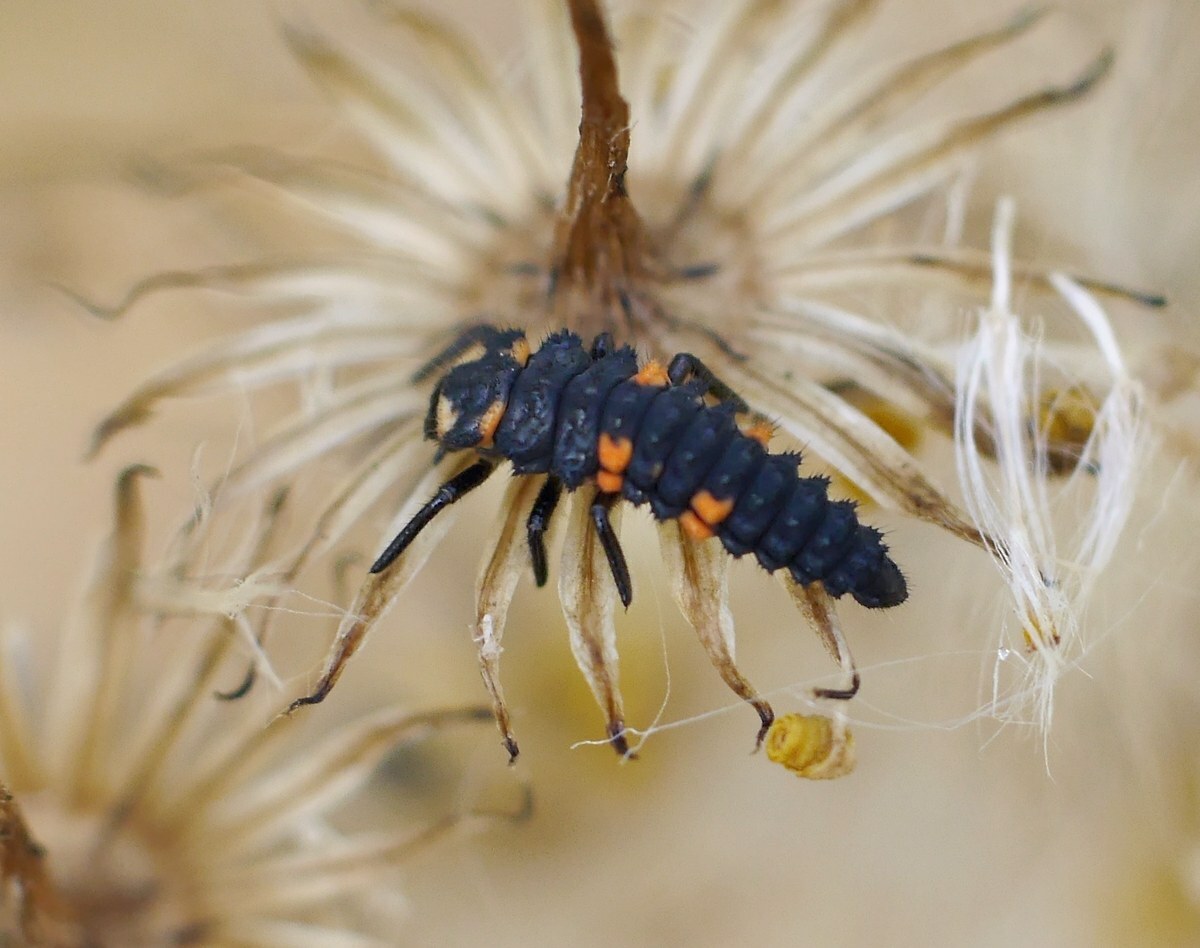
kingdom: Animalia
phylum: Arthropoda
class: Insecta
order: Coleoptera
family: Coccinellidae
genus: Coccinella
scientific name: Coccinella septempunctata
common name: Sevenspotted lady beetle
